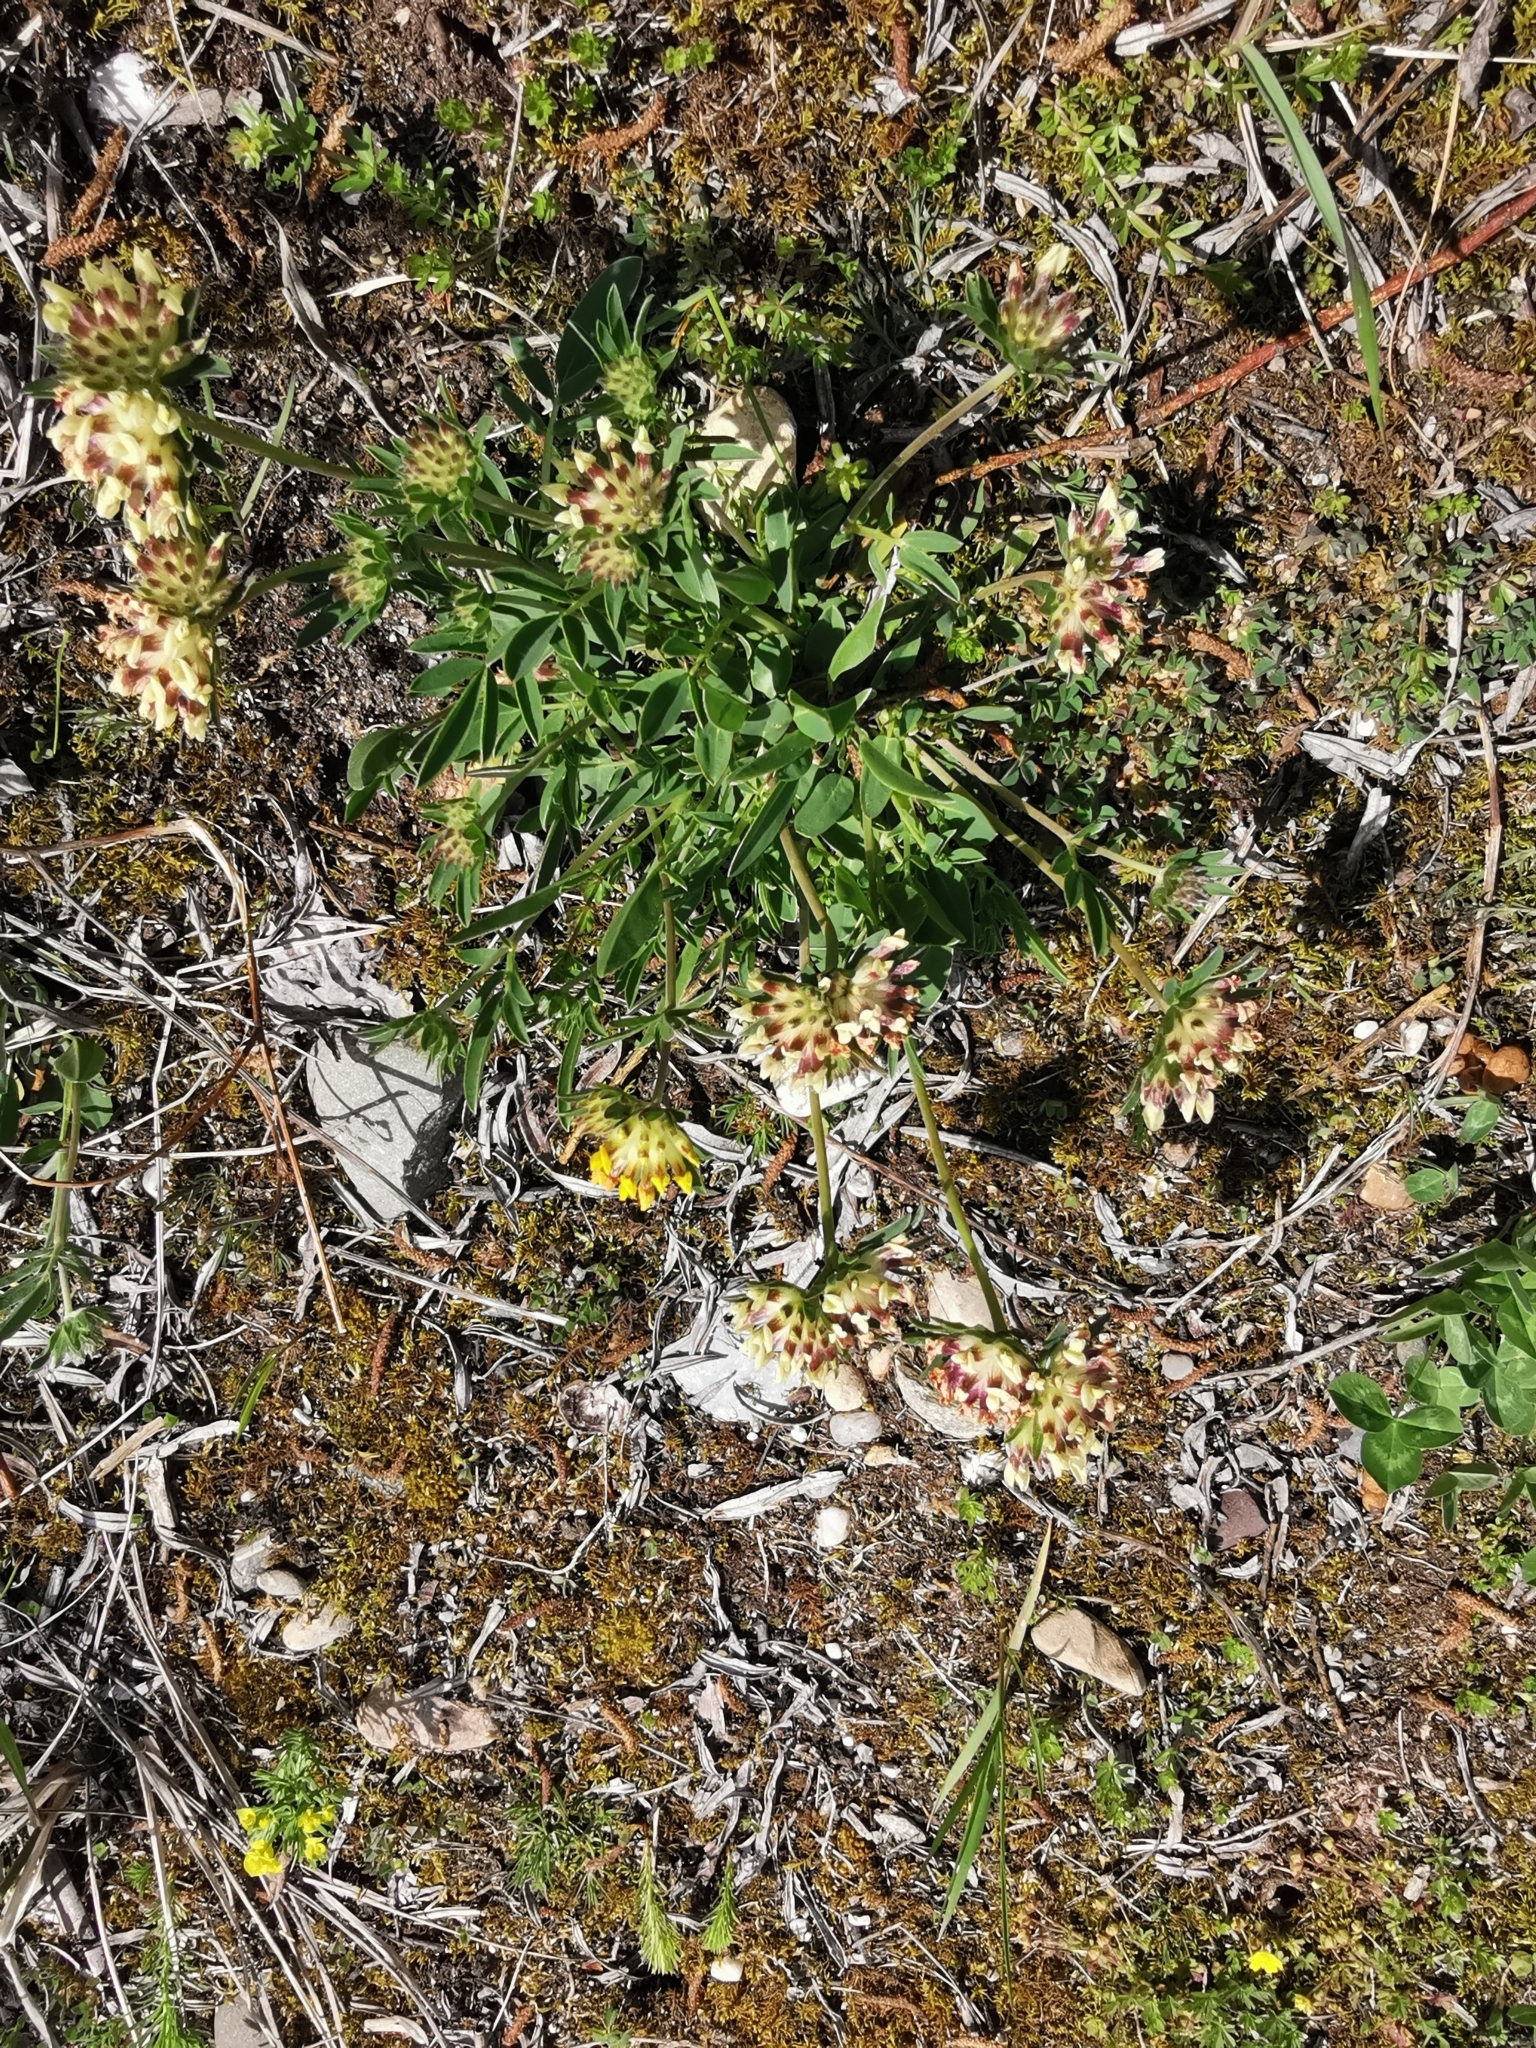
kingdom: Plantae
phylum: Tracheophyta
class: Magnoliopsida
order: Fabales
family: Fabaceae
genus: Anthyllis
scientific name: Anthyllis vulneraria
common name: Kidney vetch
